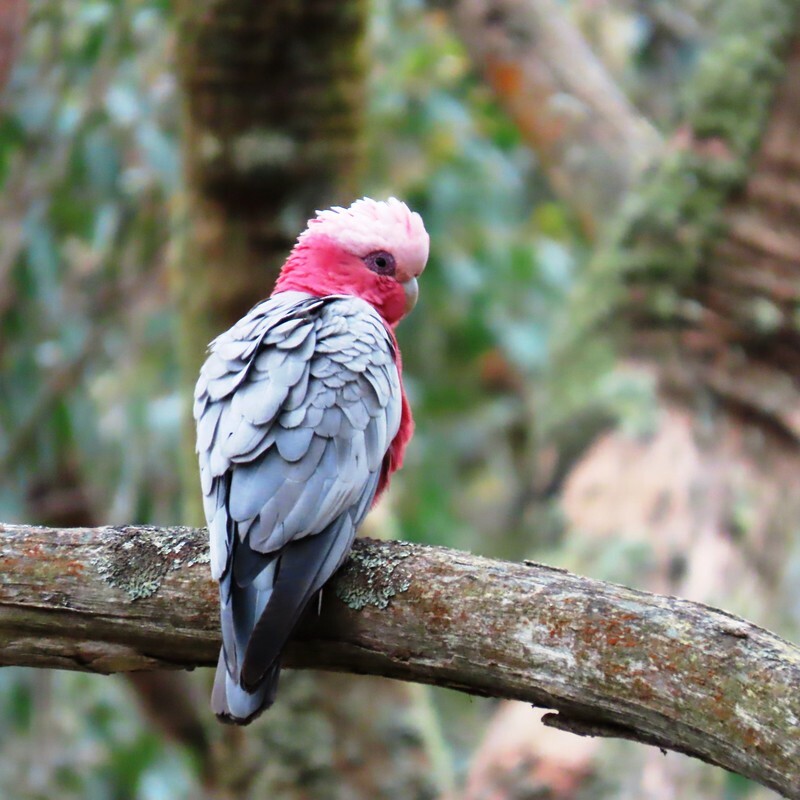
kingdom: Animalia
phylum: Chordata
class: Aves
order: Psittaciformes
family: Psittacidae
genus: Eolophus
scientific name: Eolophus roseicapilla
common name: Galah
